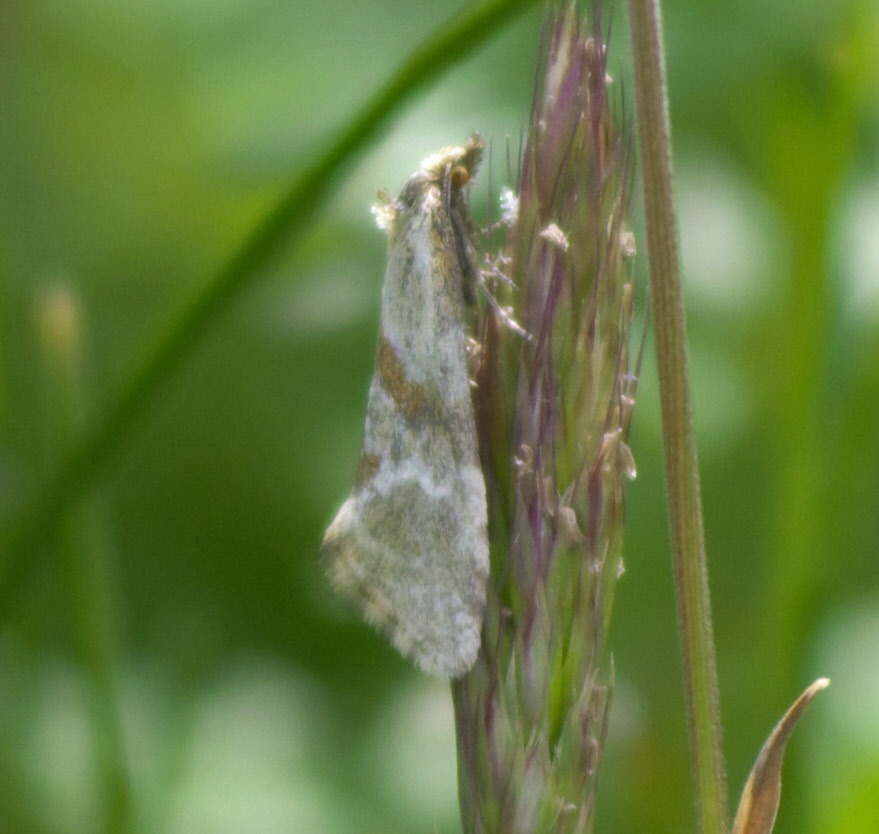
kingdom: Animalia
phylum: Arthropoda
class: Insecta
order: Lepidoptera
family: Tortricidae
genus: Aethes
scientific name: Aethes deutschiana
